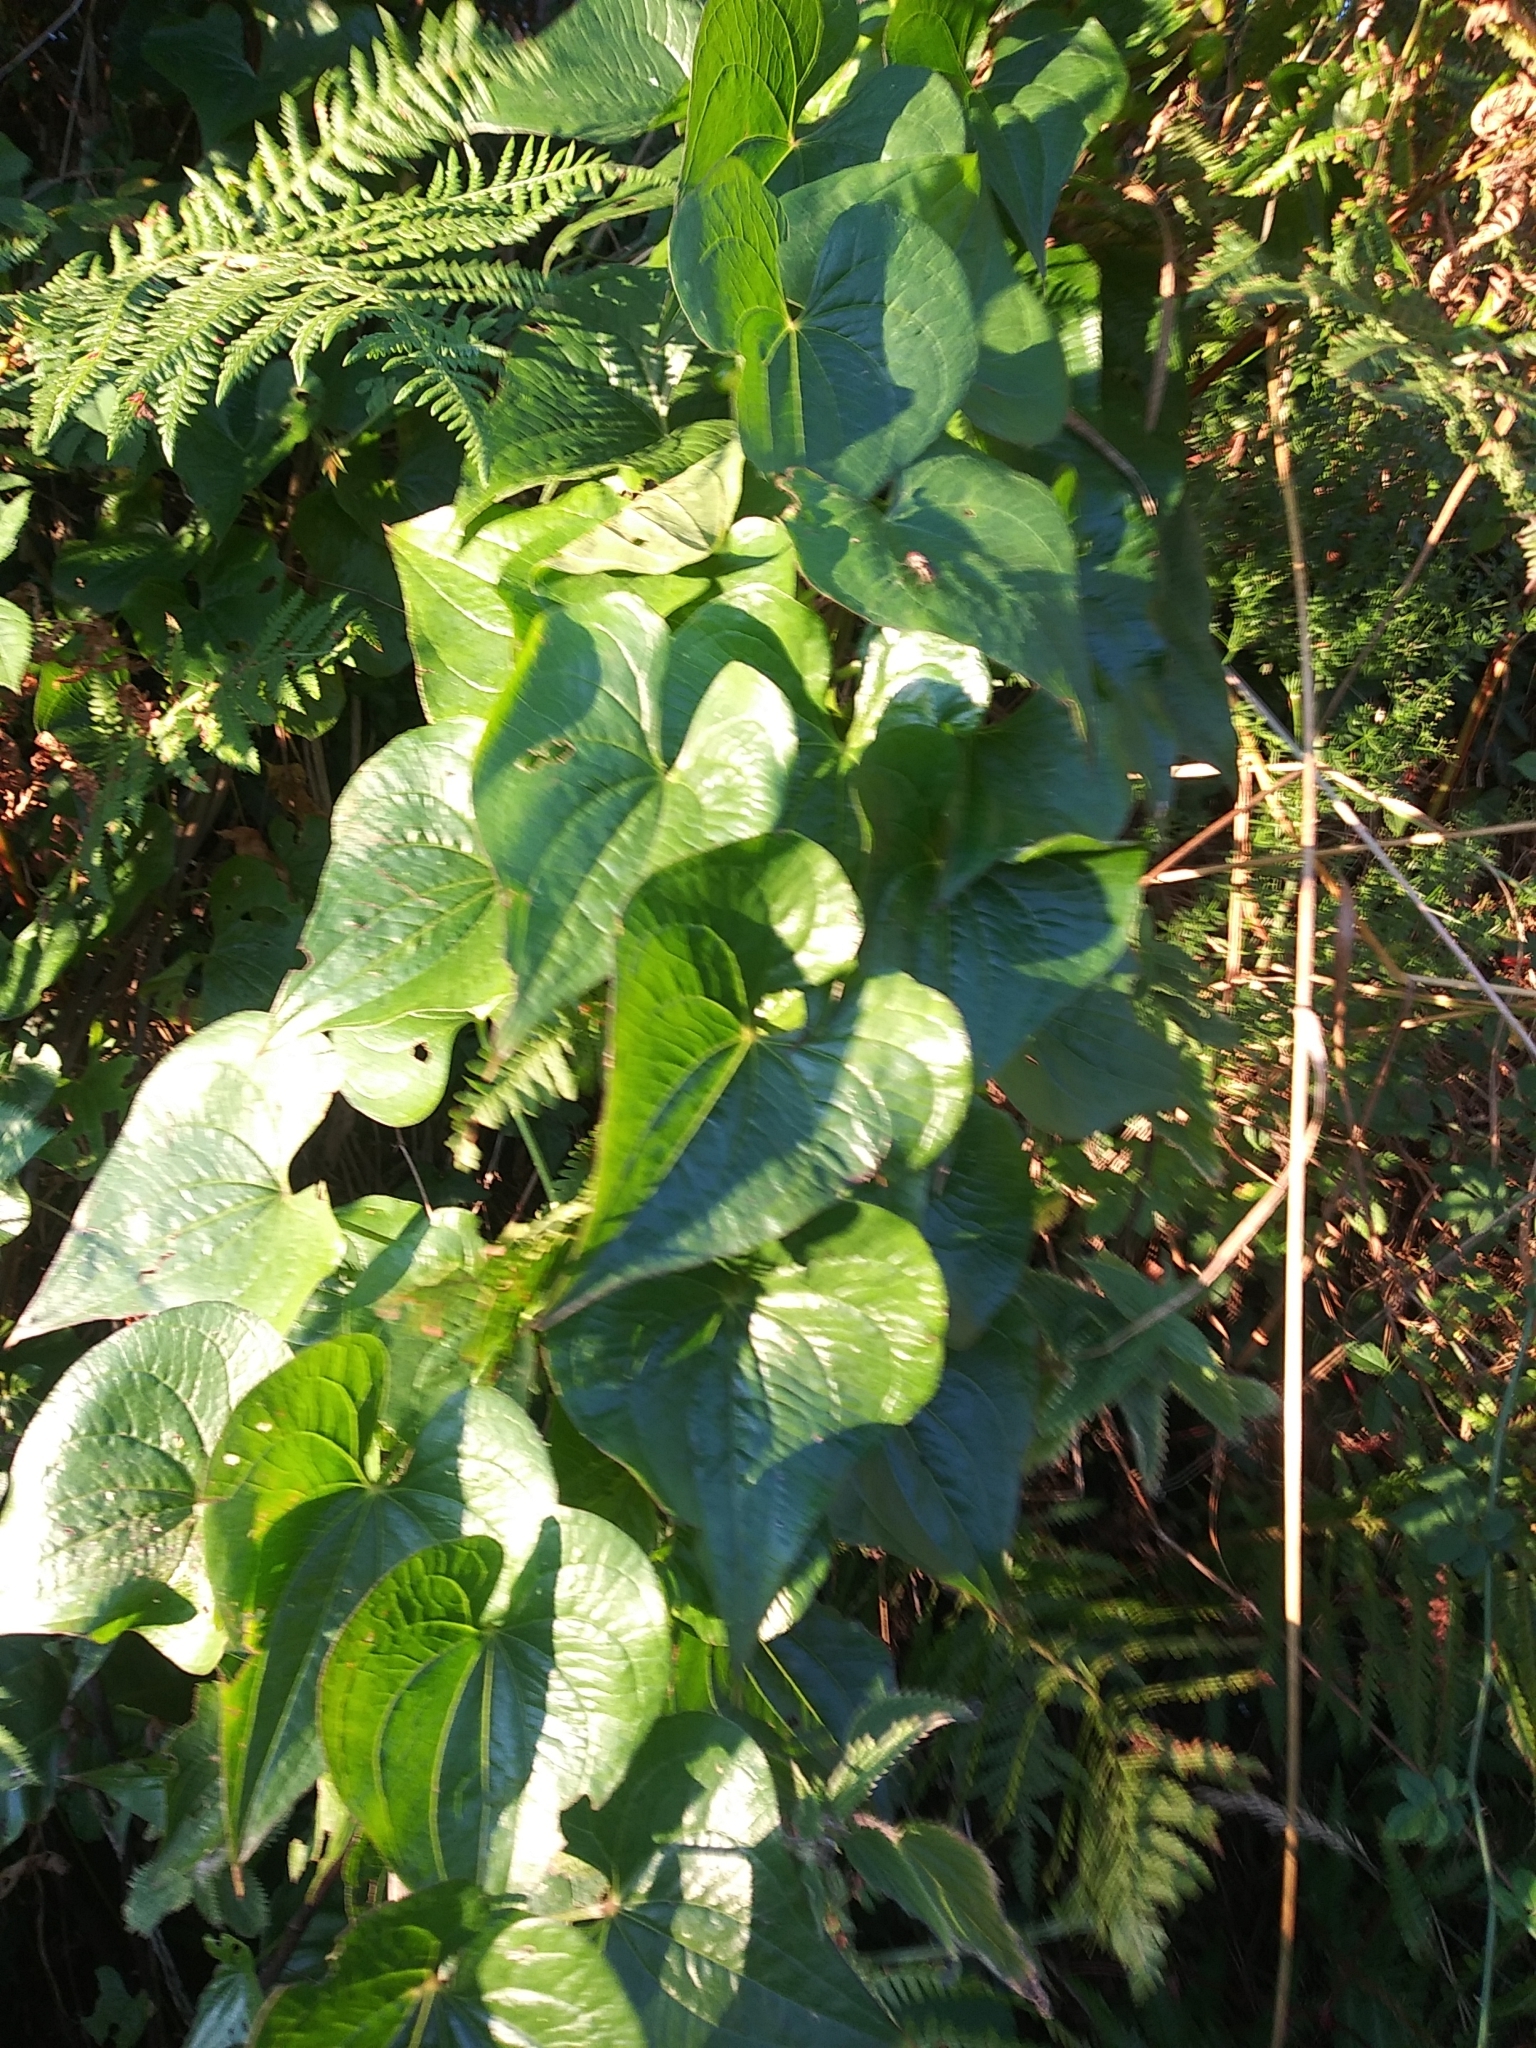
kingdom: Plantae
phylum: Tracheophyta
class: Liliopsida
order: Dioscoreales
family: Dioscoreaceae
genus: Dioscorea
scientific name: Dioscorea communis
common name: Black-bindweed
